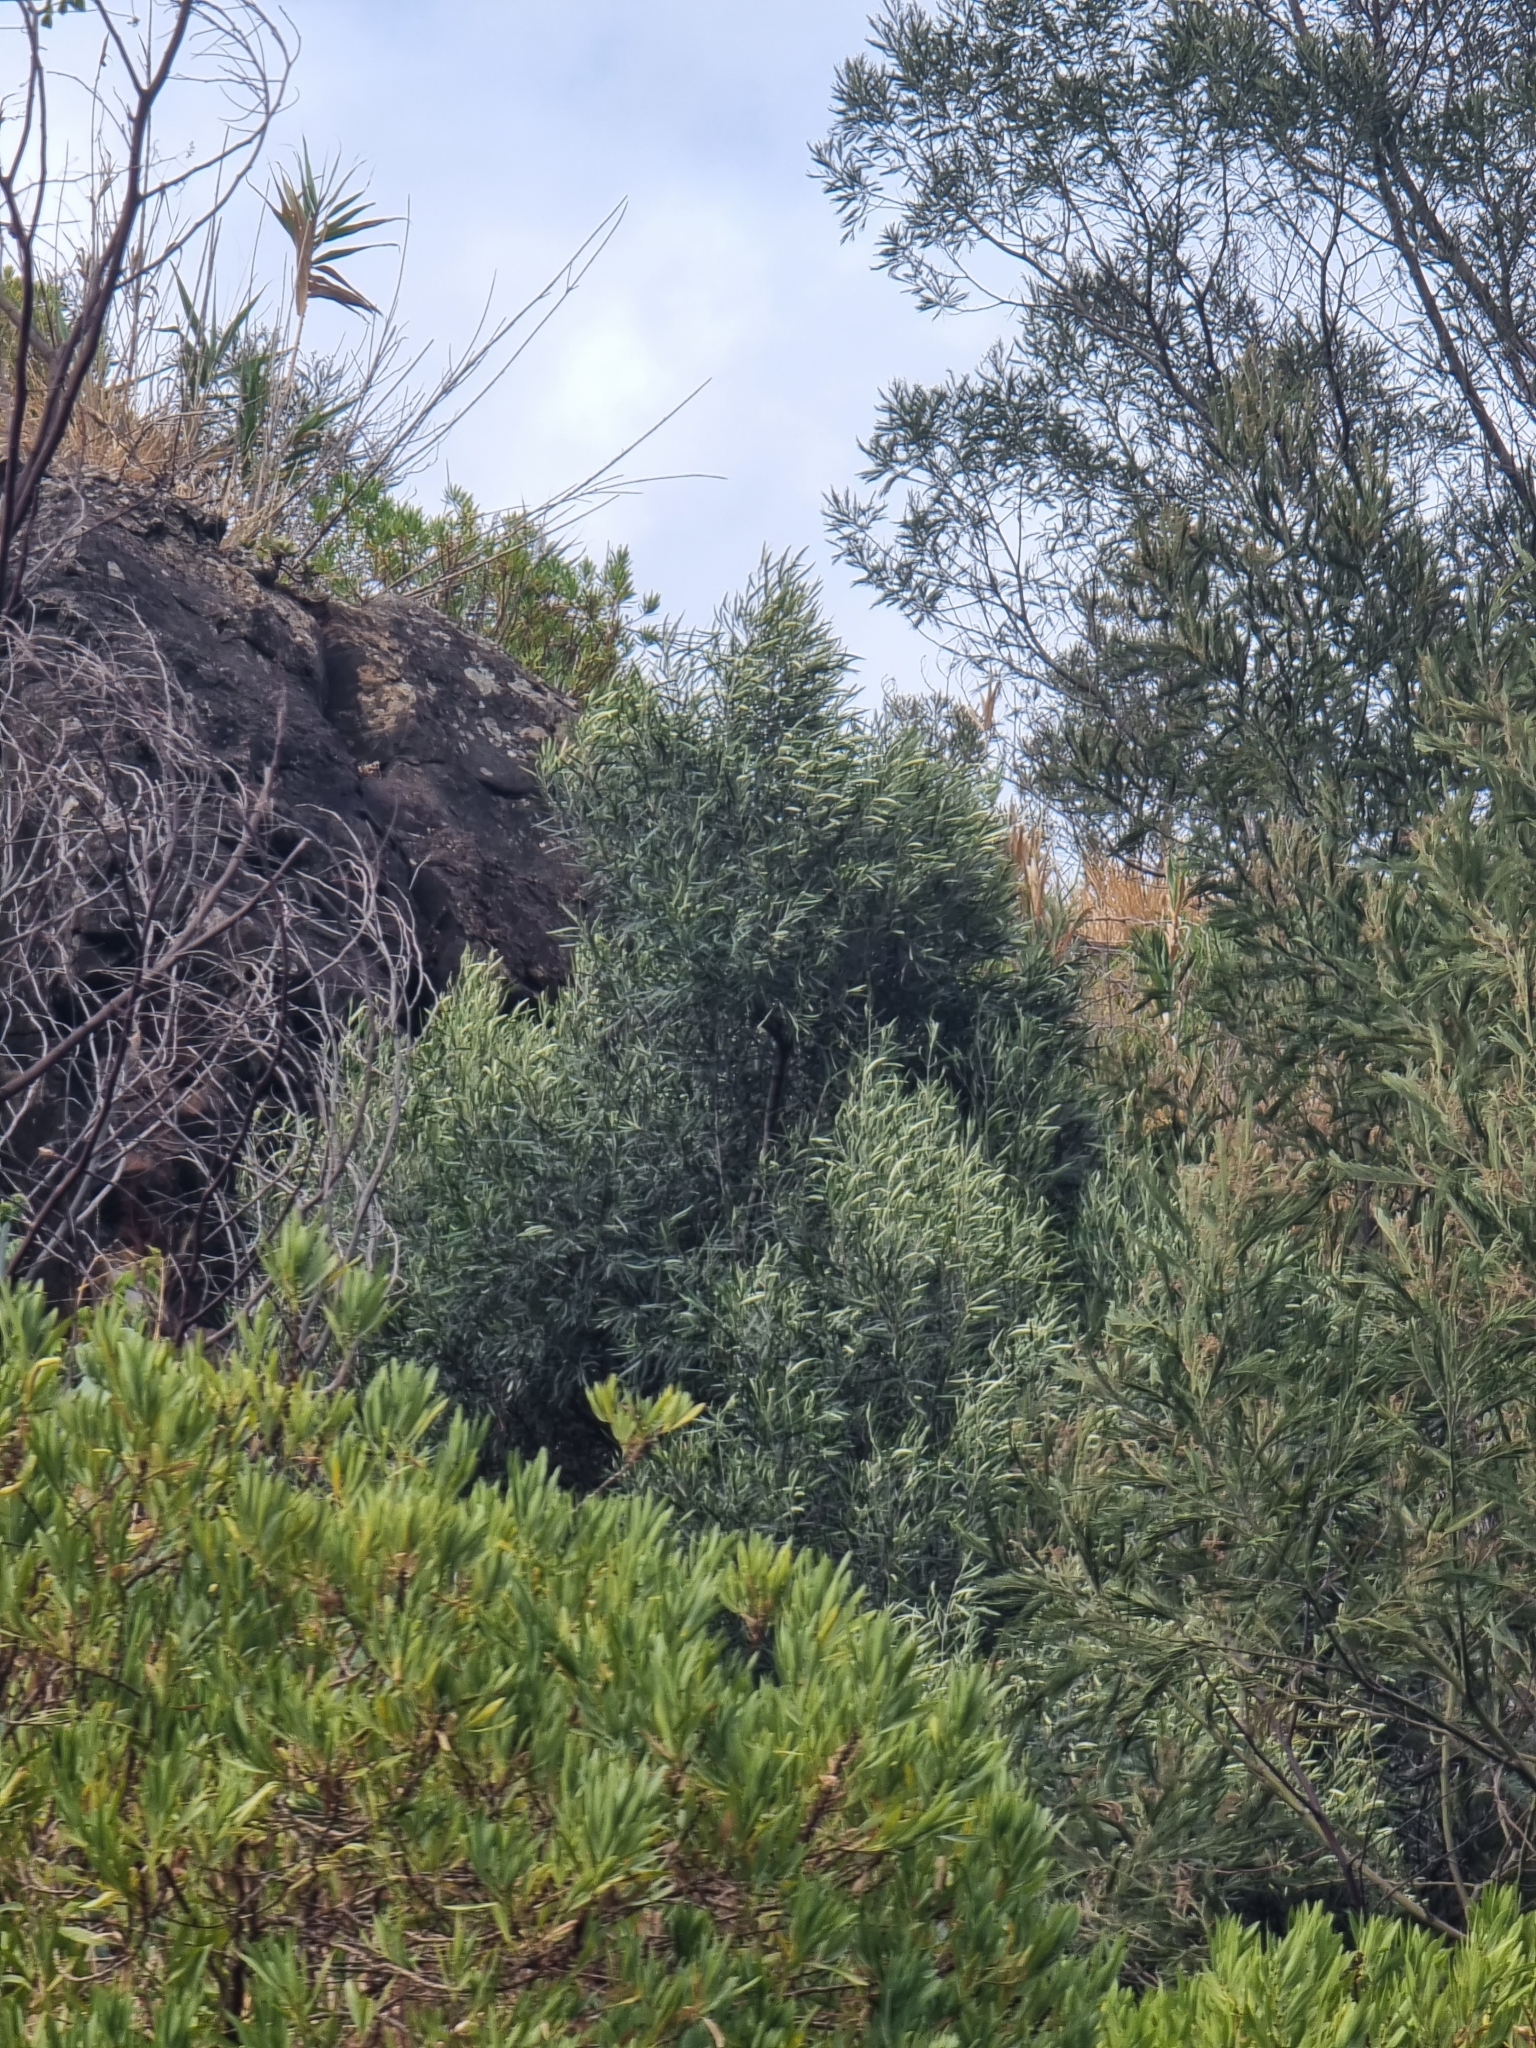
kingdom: Plantae
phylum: Tracheophyta
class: Magnoliopsida
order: Lamiales
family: Oleaceae
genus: Olea
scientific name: Olea europaea
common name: Olive
